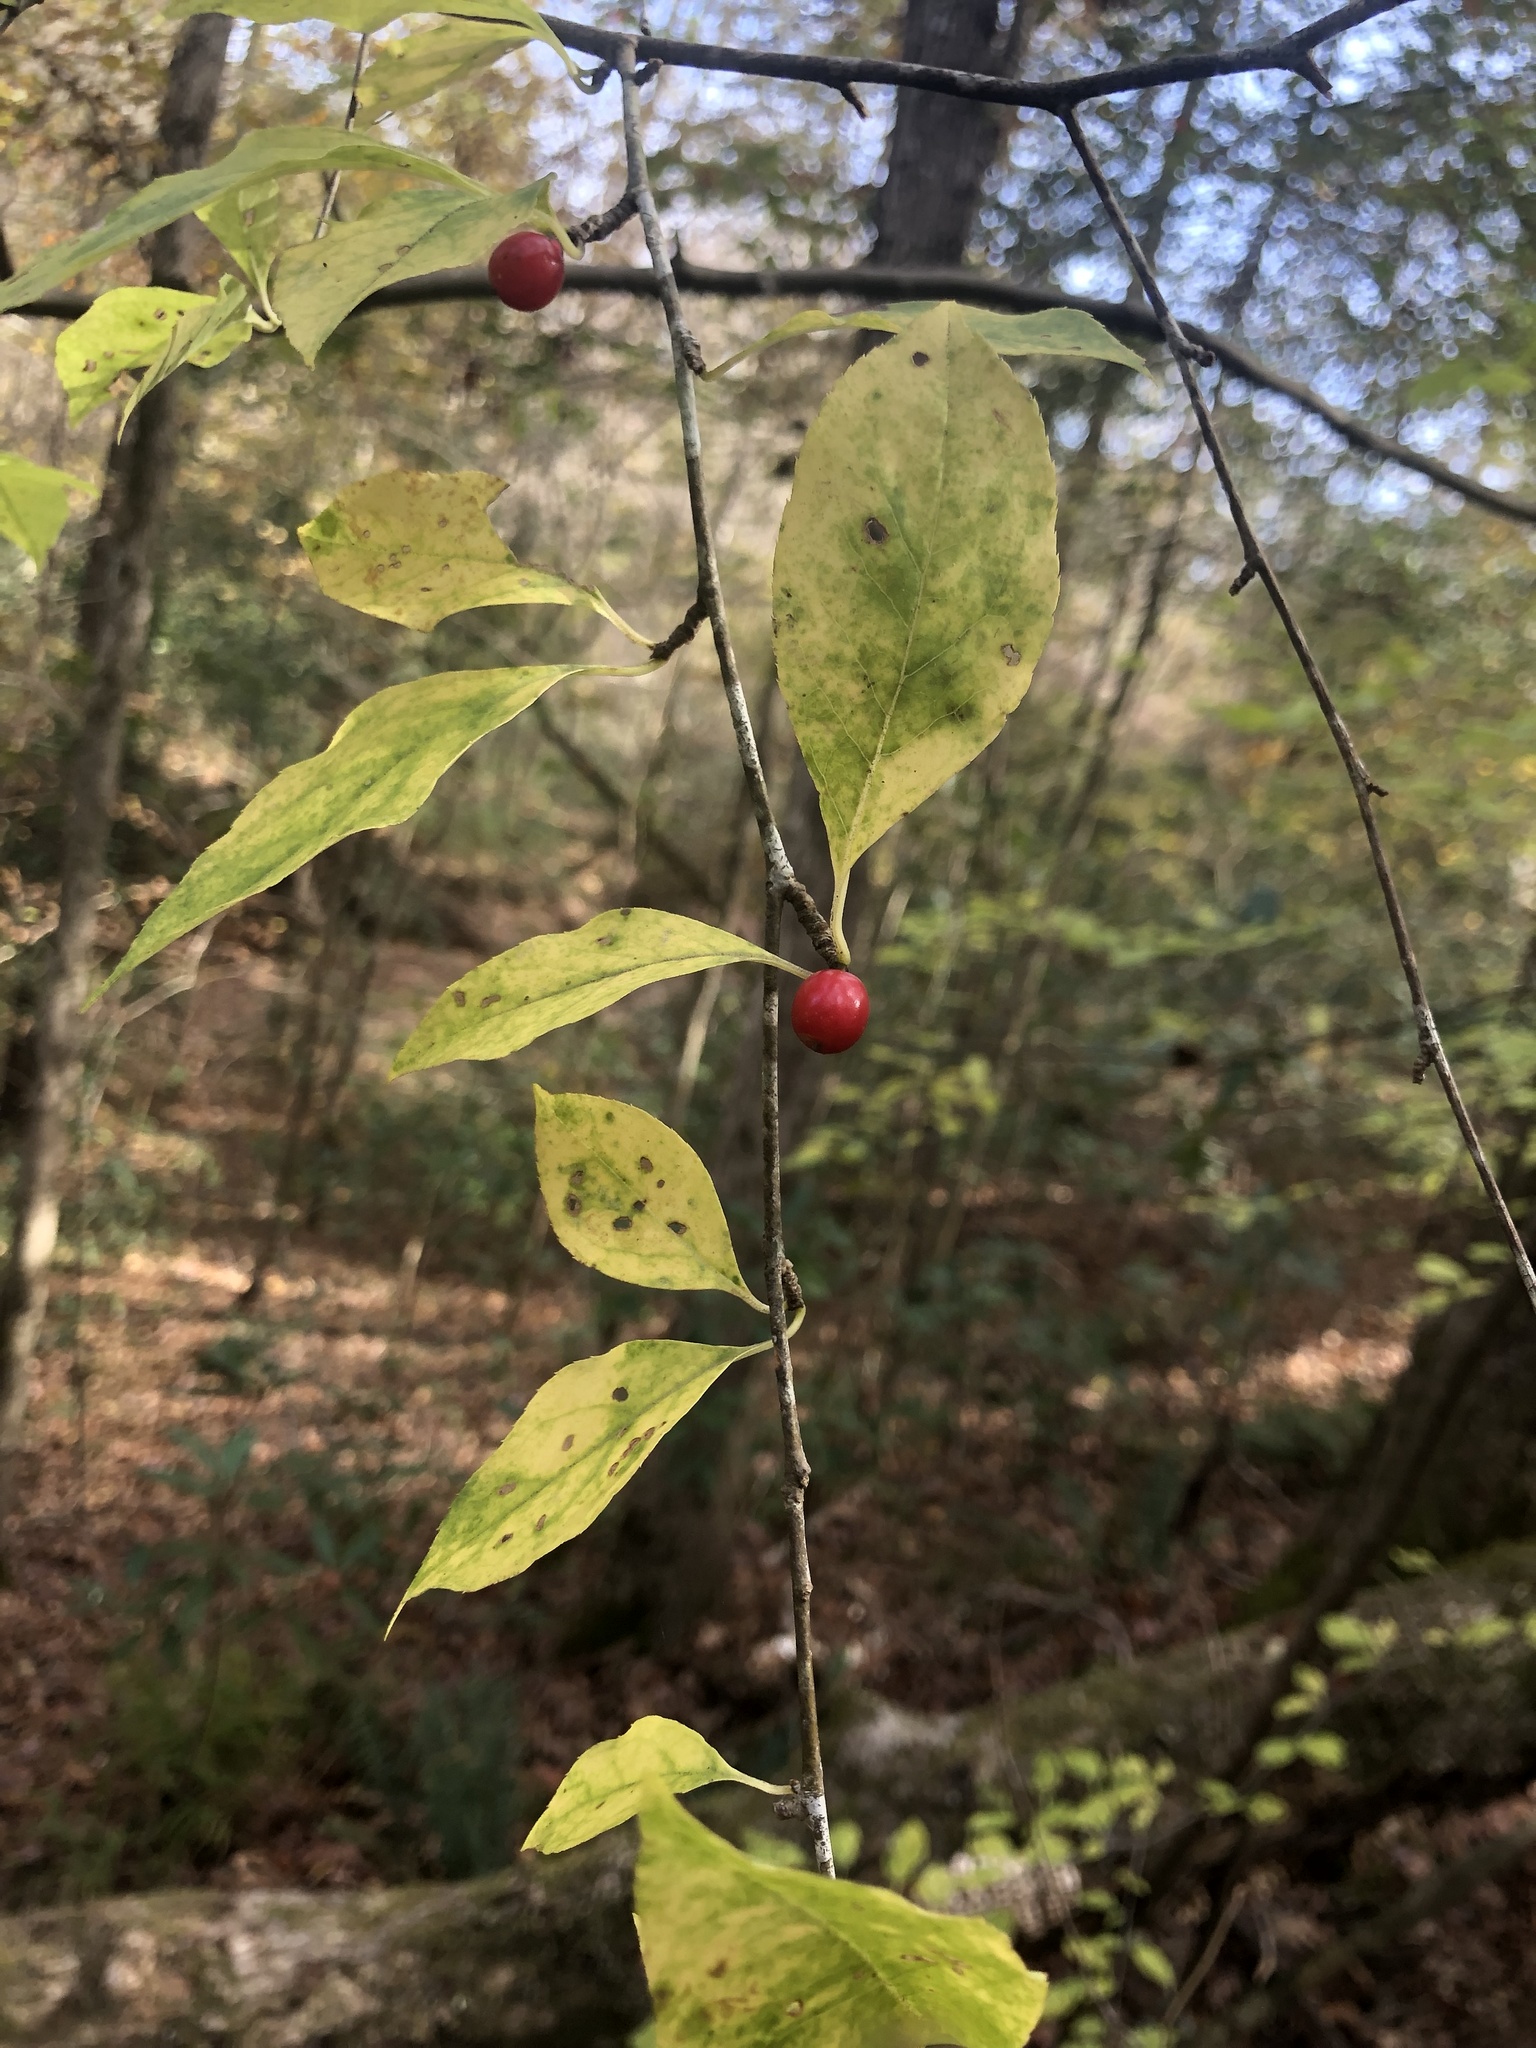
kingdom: Plantae
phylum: Tracheophyta
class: Magnoliopsida
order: Aquifoliales
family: Aquifoliaceae
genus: Ilex
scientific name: Ilex ambigua
